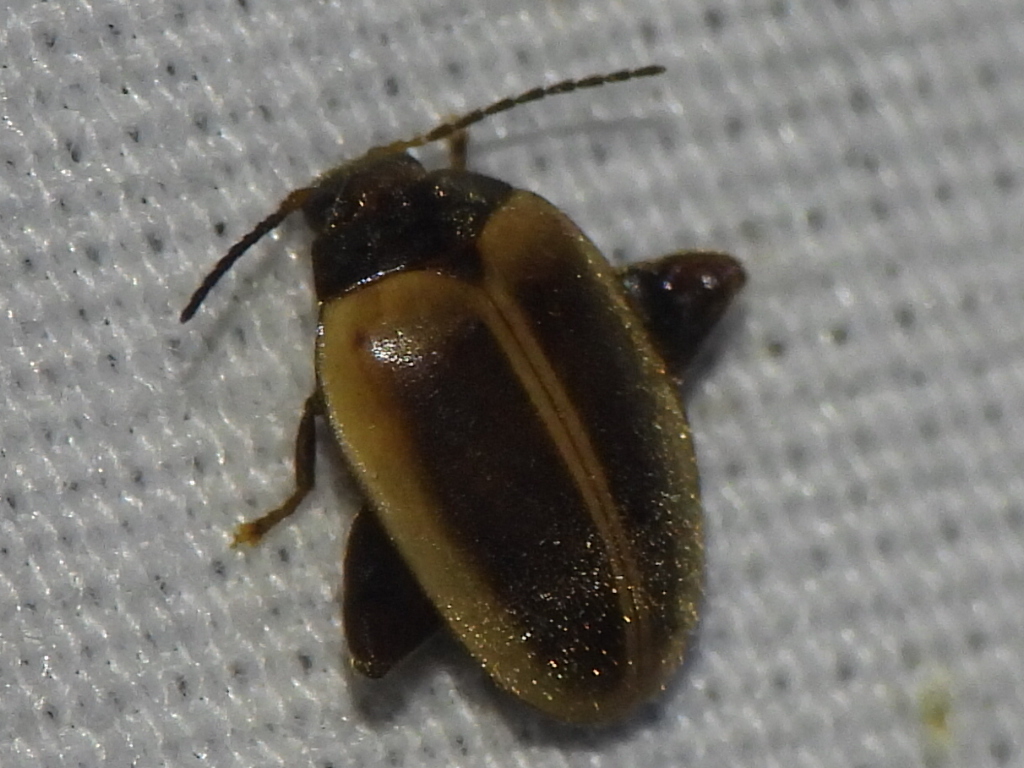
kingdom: Animalia
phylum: Arthropoda
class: Insecta
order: Coleoptera
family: Scirtidae
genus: Ora
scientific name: Ora discoidea
